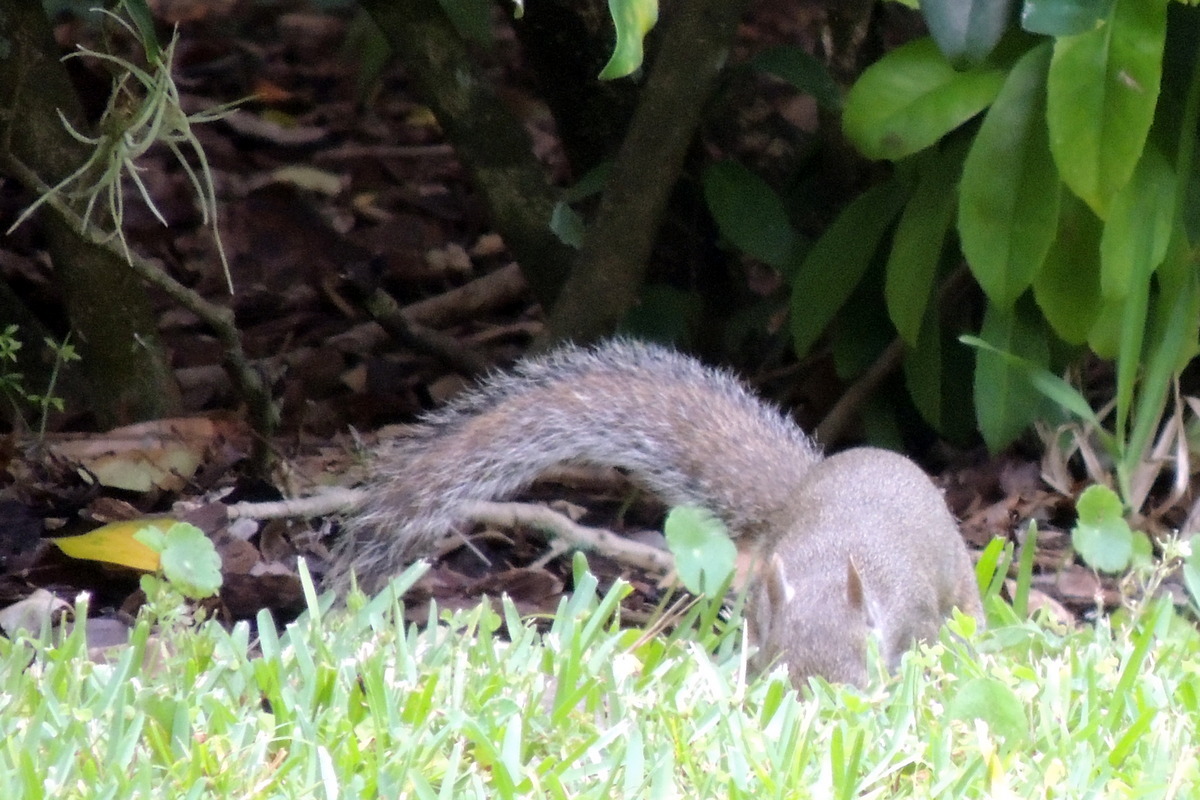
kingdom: Animalia
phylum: Chordata
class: Mammalia
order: Rodentia
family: Sciuridae
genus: Sciurus
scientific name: Sciurus carolinensis
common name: Eastern gray squirrel
